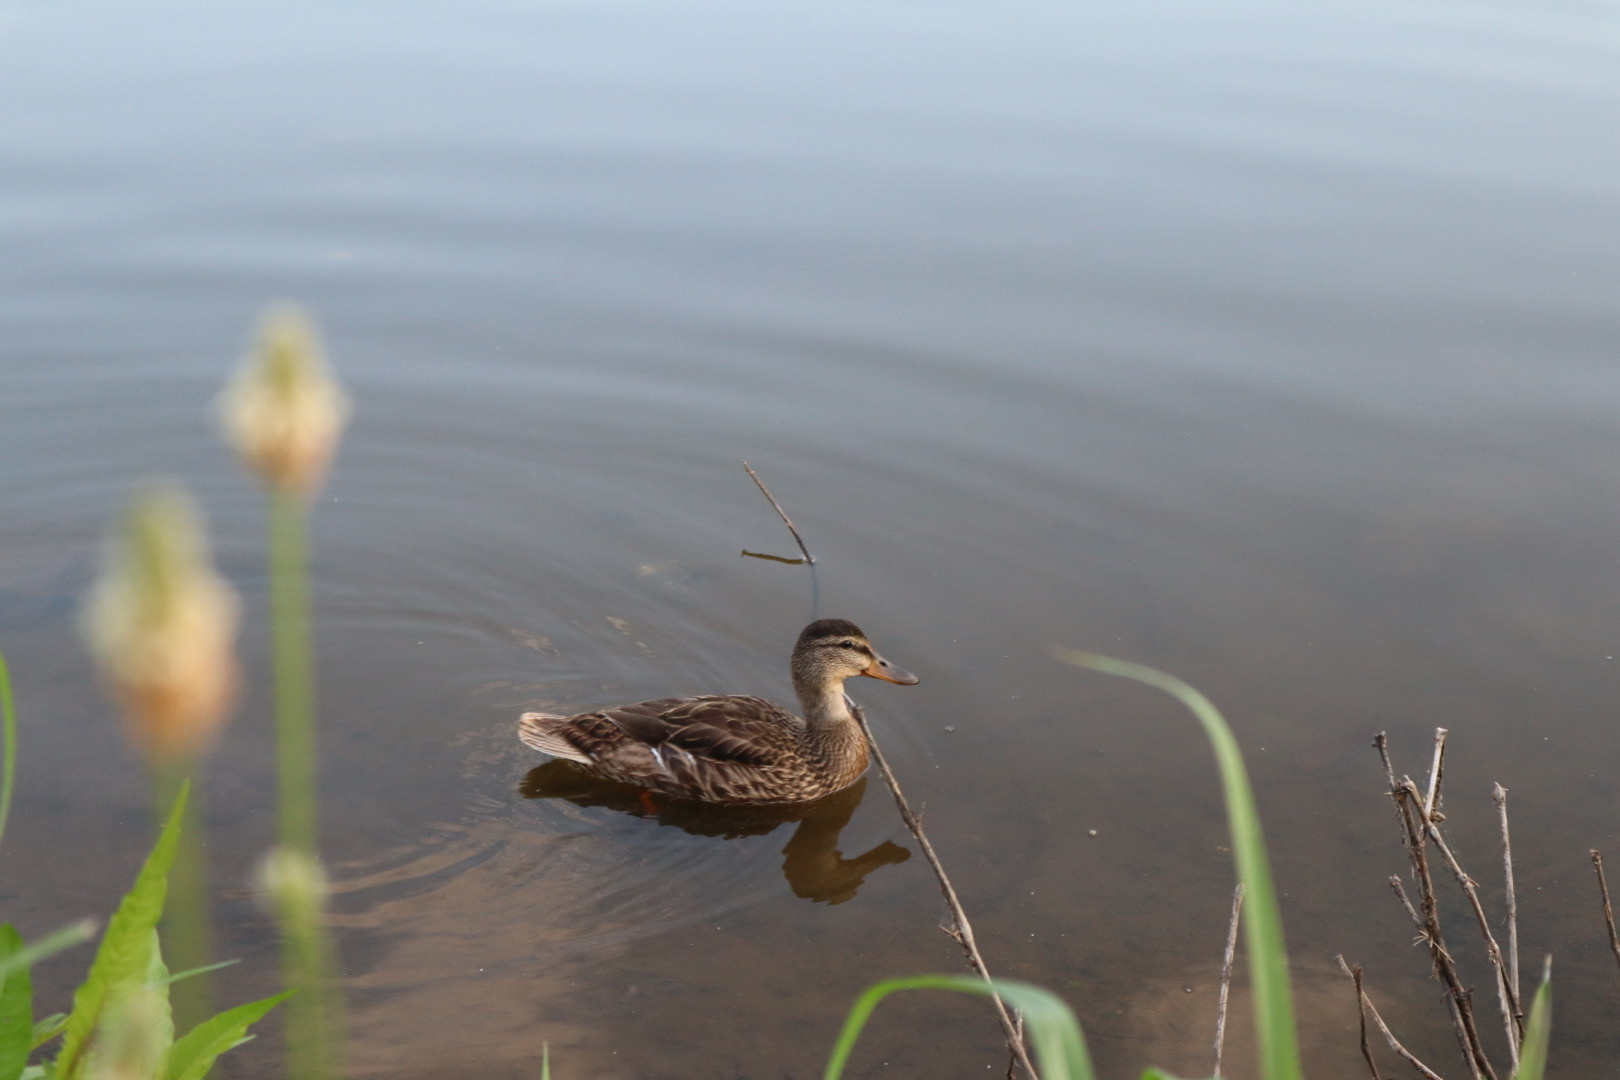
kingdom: Animalia
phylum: Chordata
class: Aves
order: Anseriformes
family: Anatidae
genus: Anas
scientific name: Anas platyrhynchos
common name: Mallard
